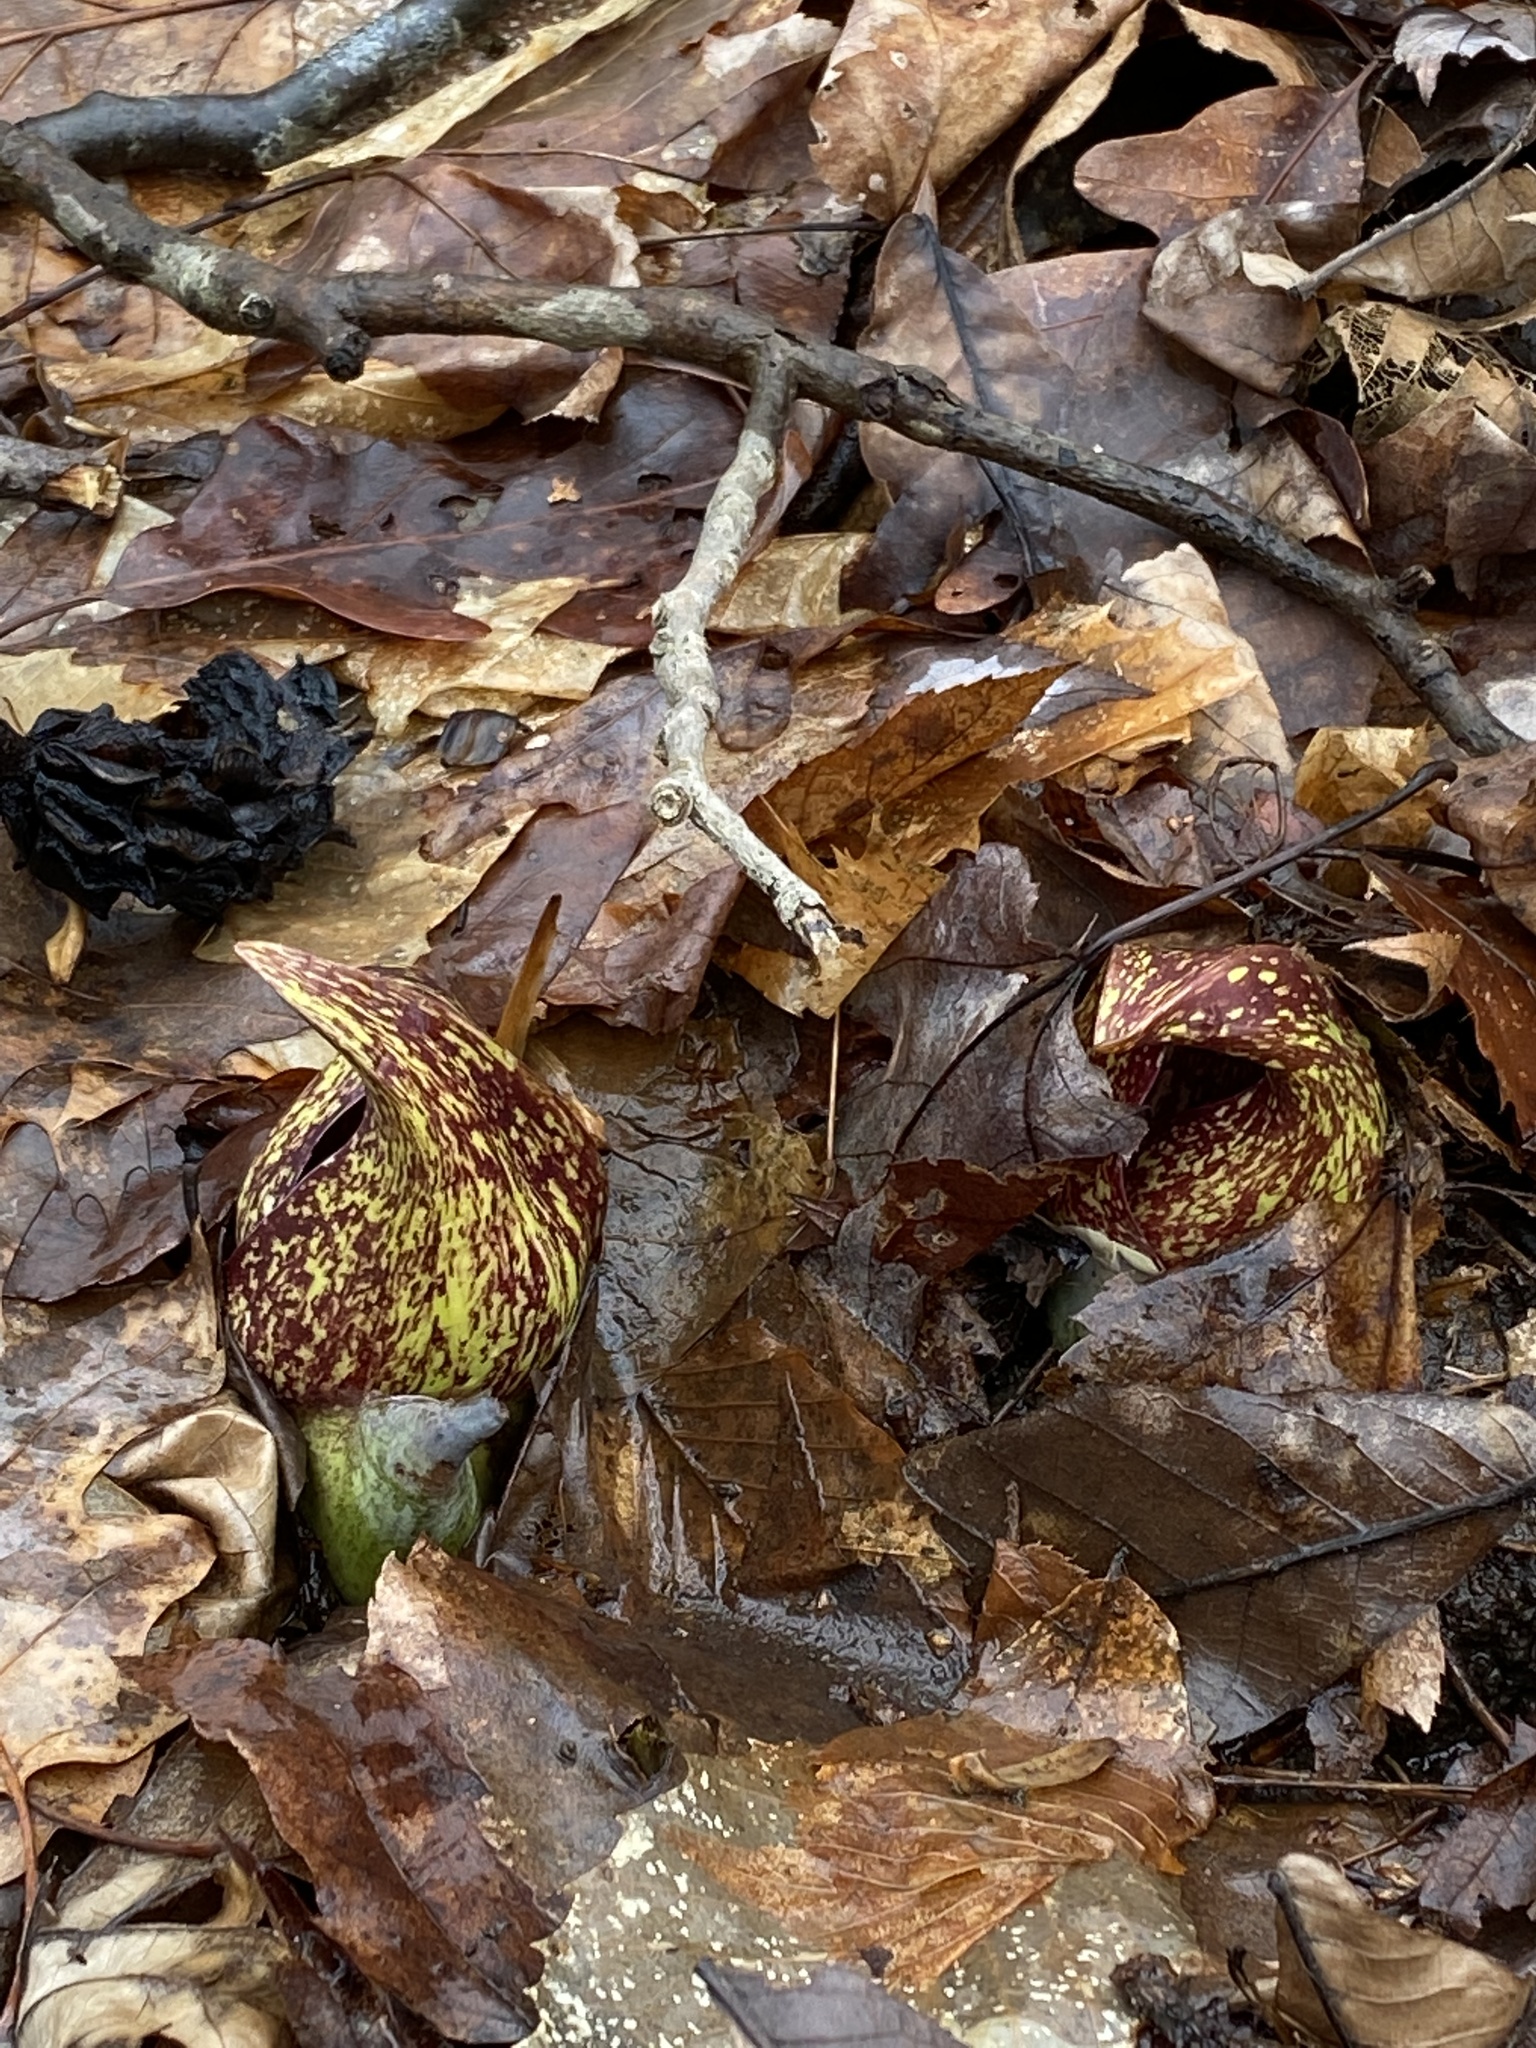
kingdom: Plantae
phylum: Tracheophyta
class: Liliopsida
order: Alismatales
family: Araceae
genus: Symplocarpus
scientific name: Symplocarpus foetidus
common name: Eastern skunk cabbage
